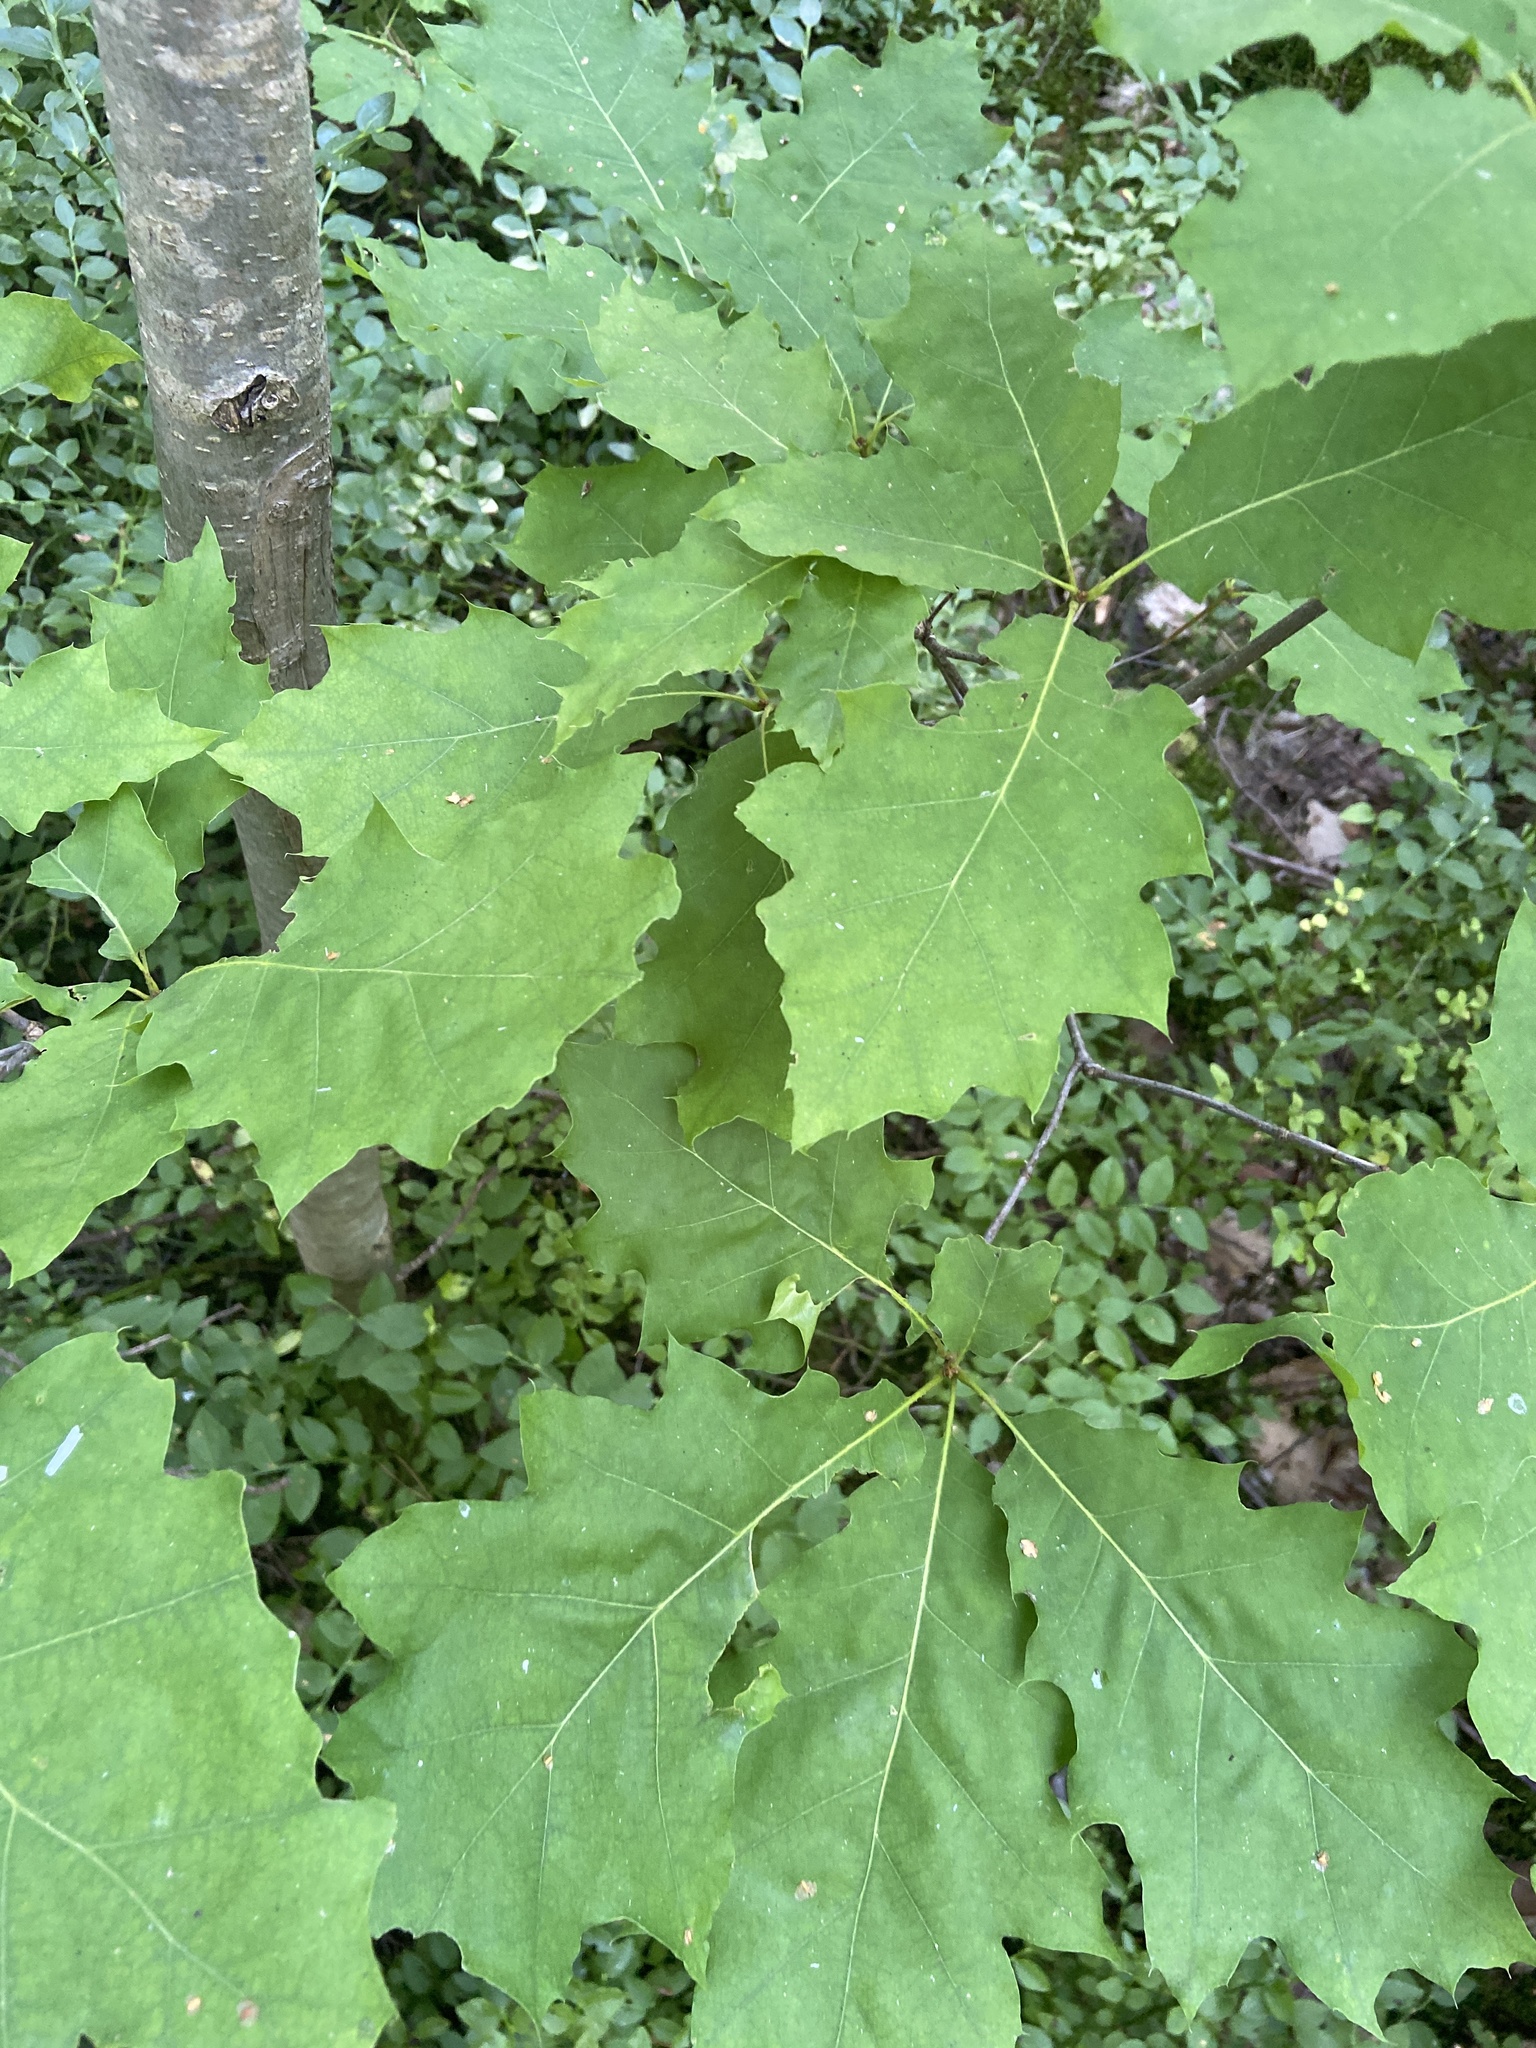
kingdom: Plantae
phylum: Tracheophyta
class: Magnoliopsida
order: Fagales
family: Fagaceae
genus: Quercus
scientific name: Quercus rubra
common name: Red oak
